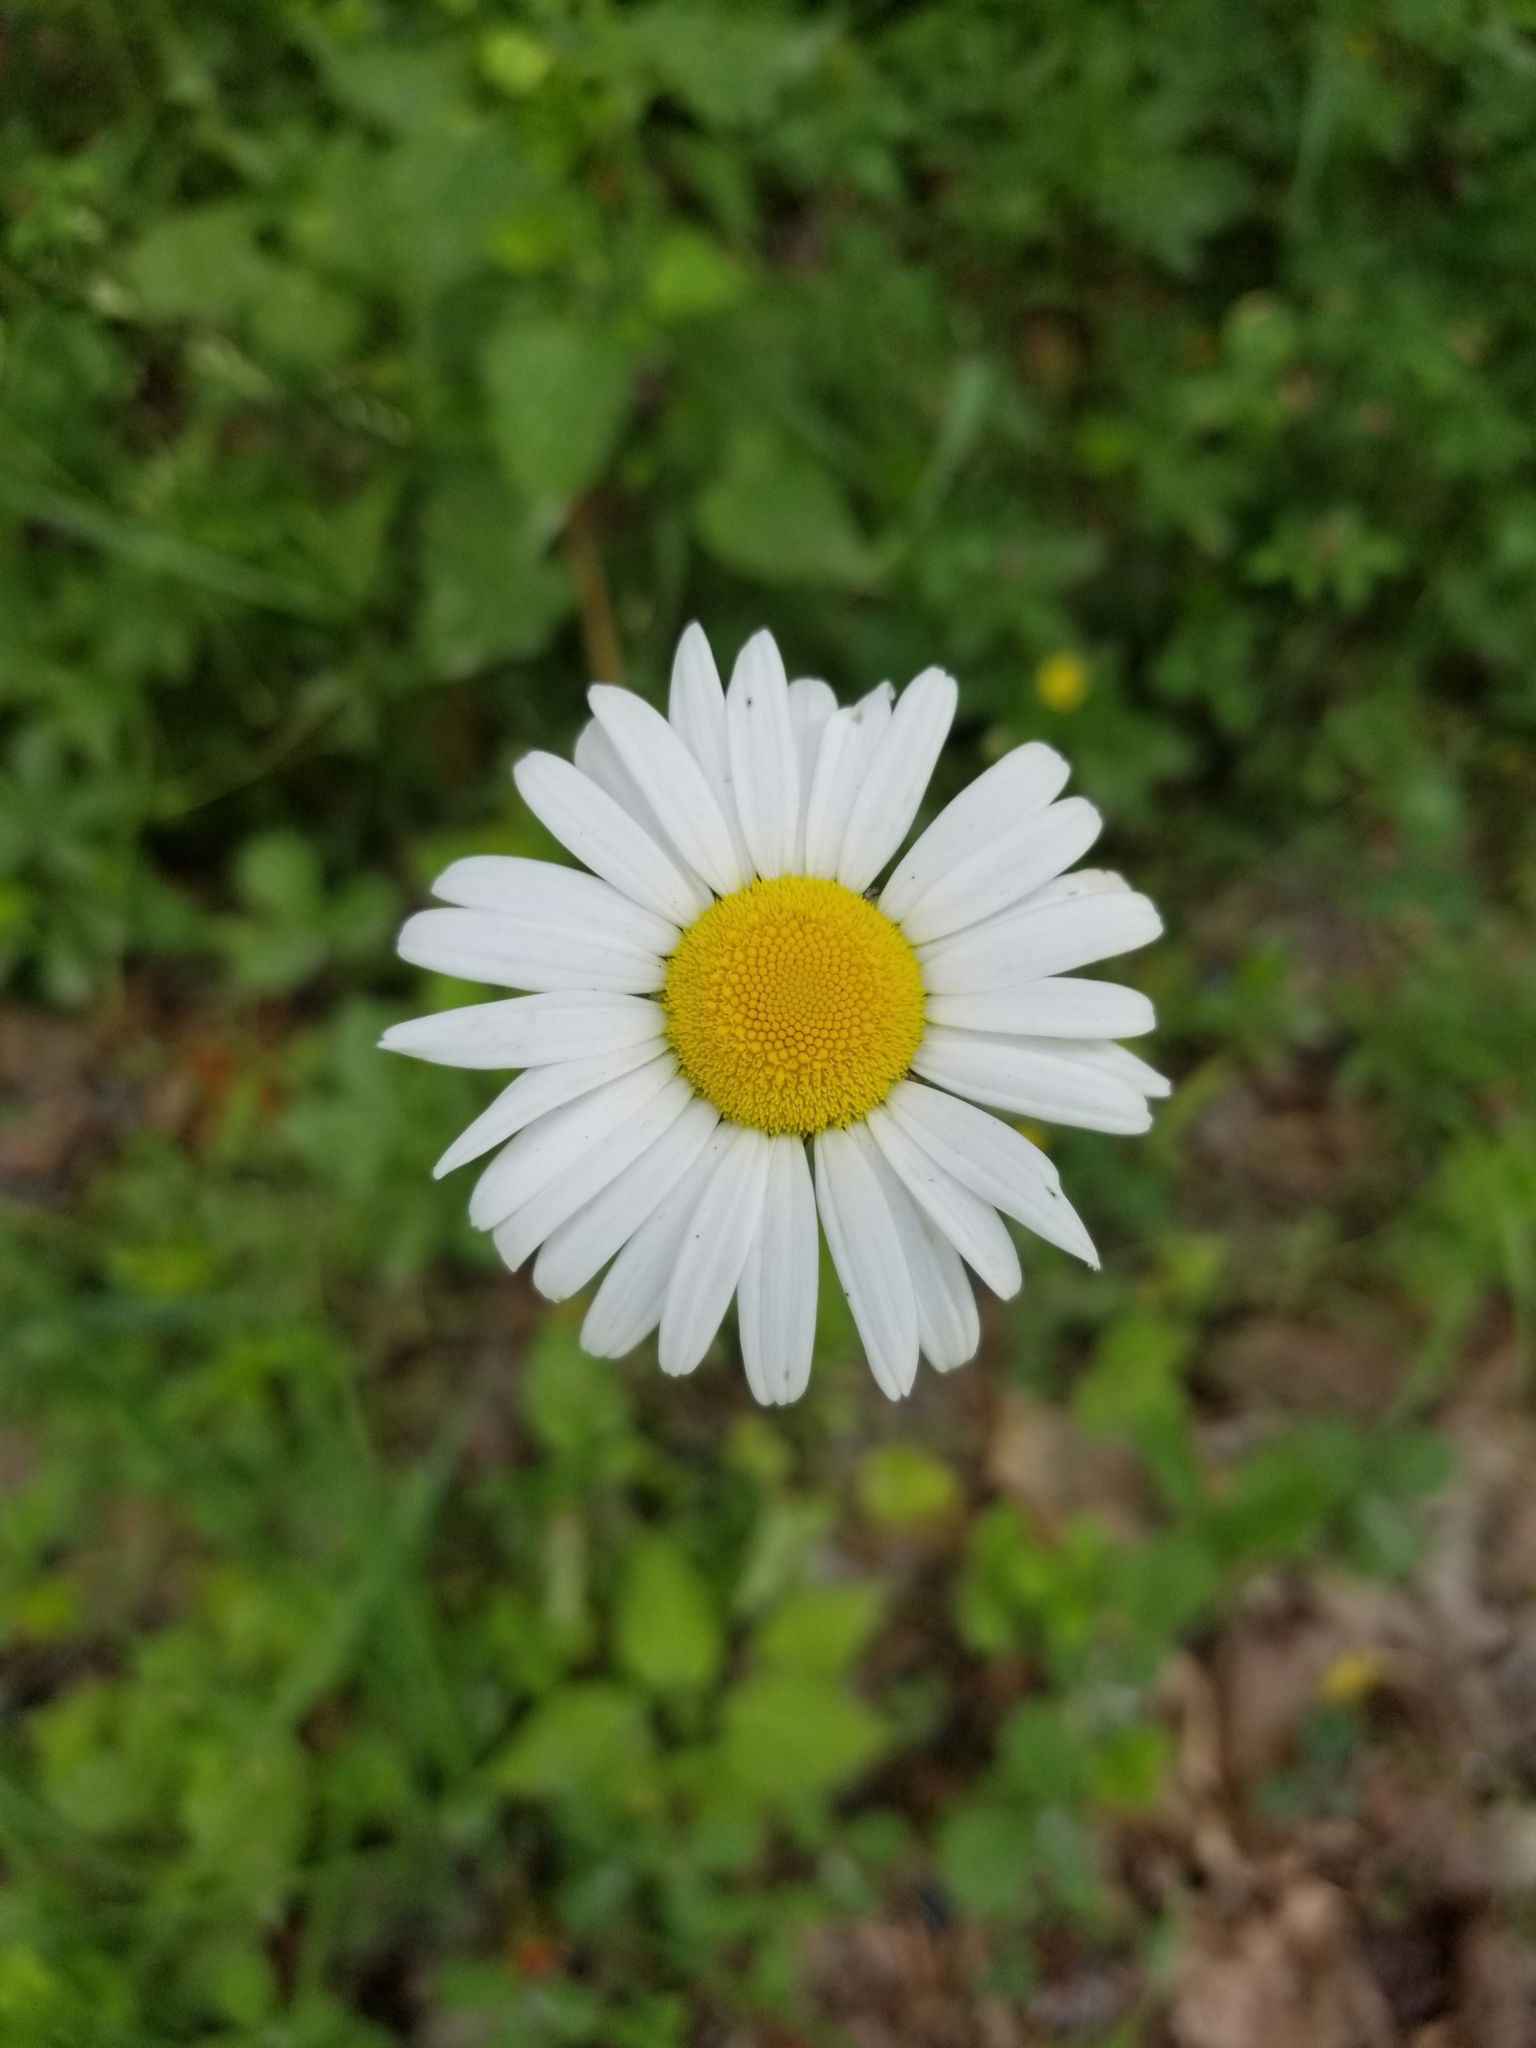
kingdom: Plantae
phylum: Tracheophyta
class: Magnoliopsida
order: Asterales
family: Asteraceae
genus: Leucanthemum
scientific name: Leucanthemum vulgare
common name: Oxeye daisy
